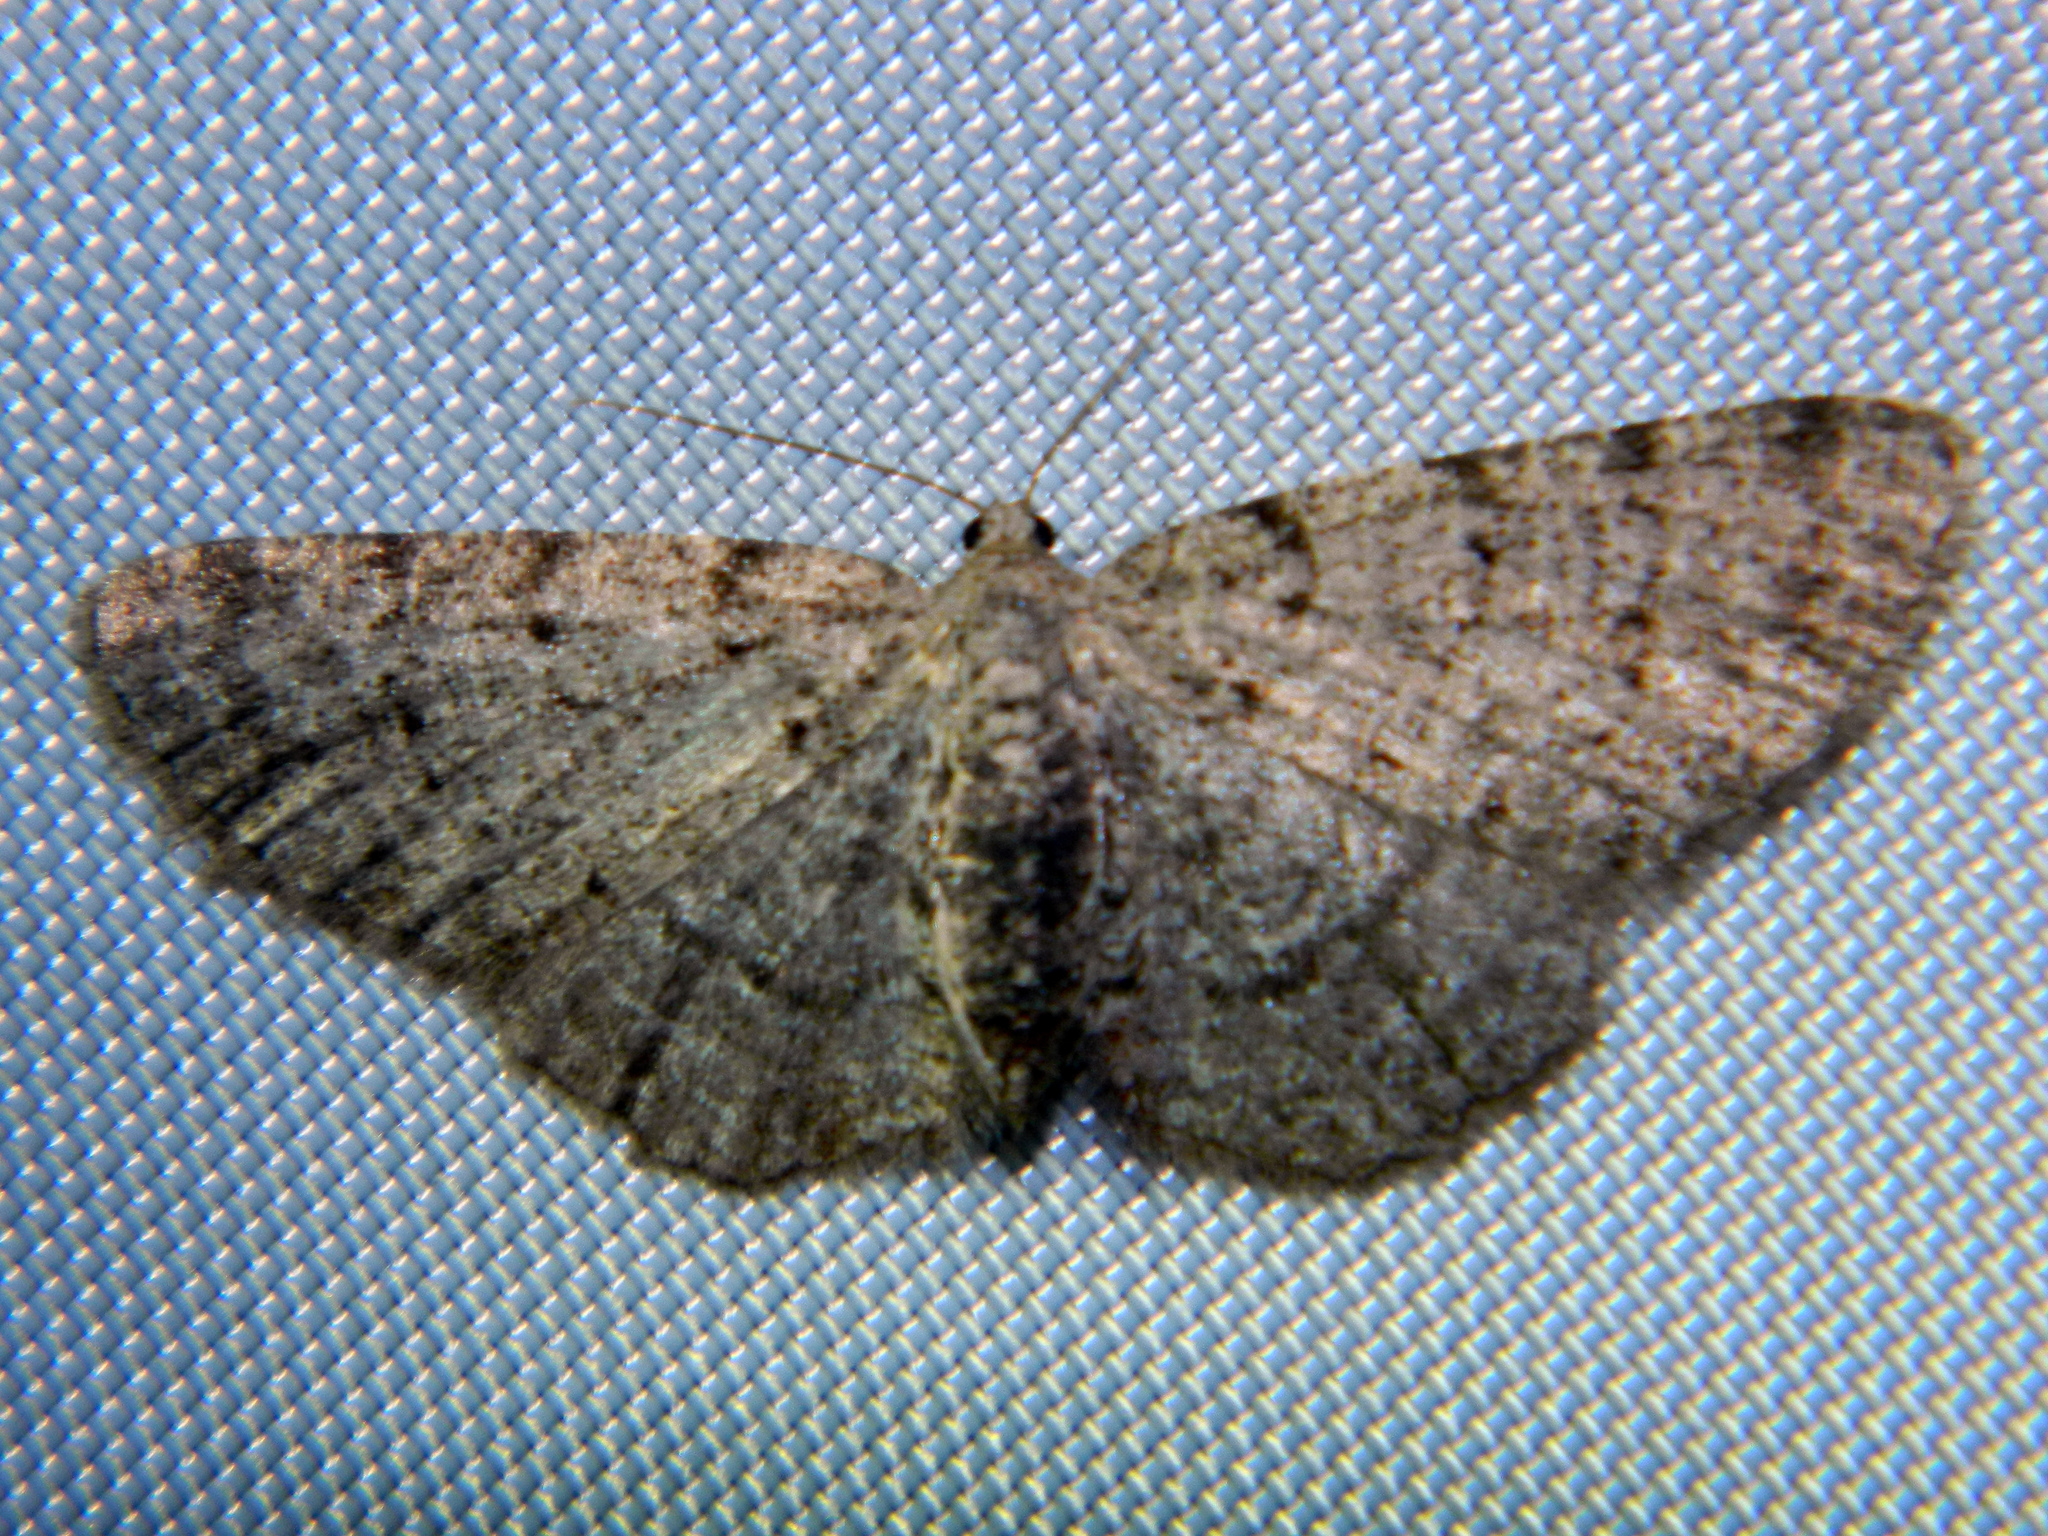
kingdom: Animalia
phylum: Arthropoda
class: Insecta
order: Lepidoptera
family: Geometridae
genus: Aethalura
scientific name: Aethalura intertexta
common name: Four-barred gray
